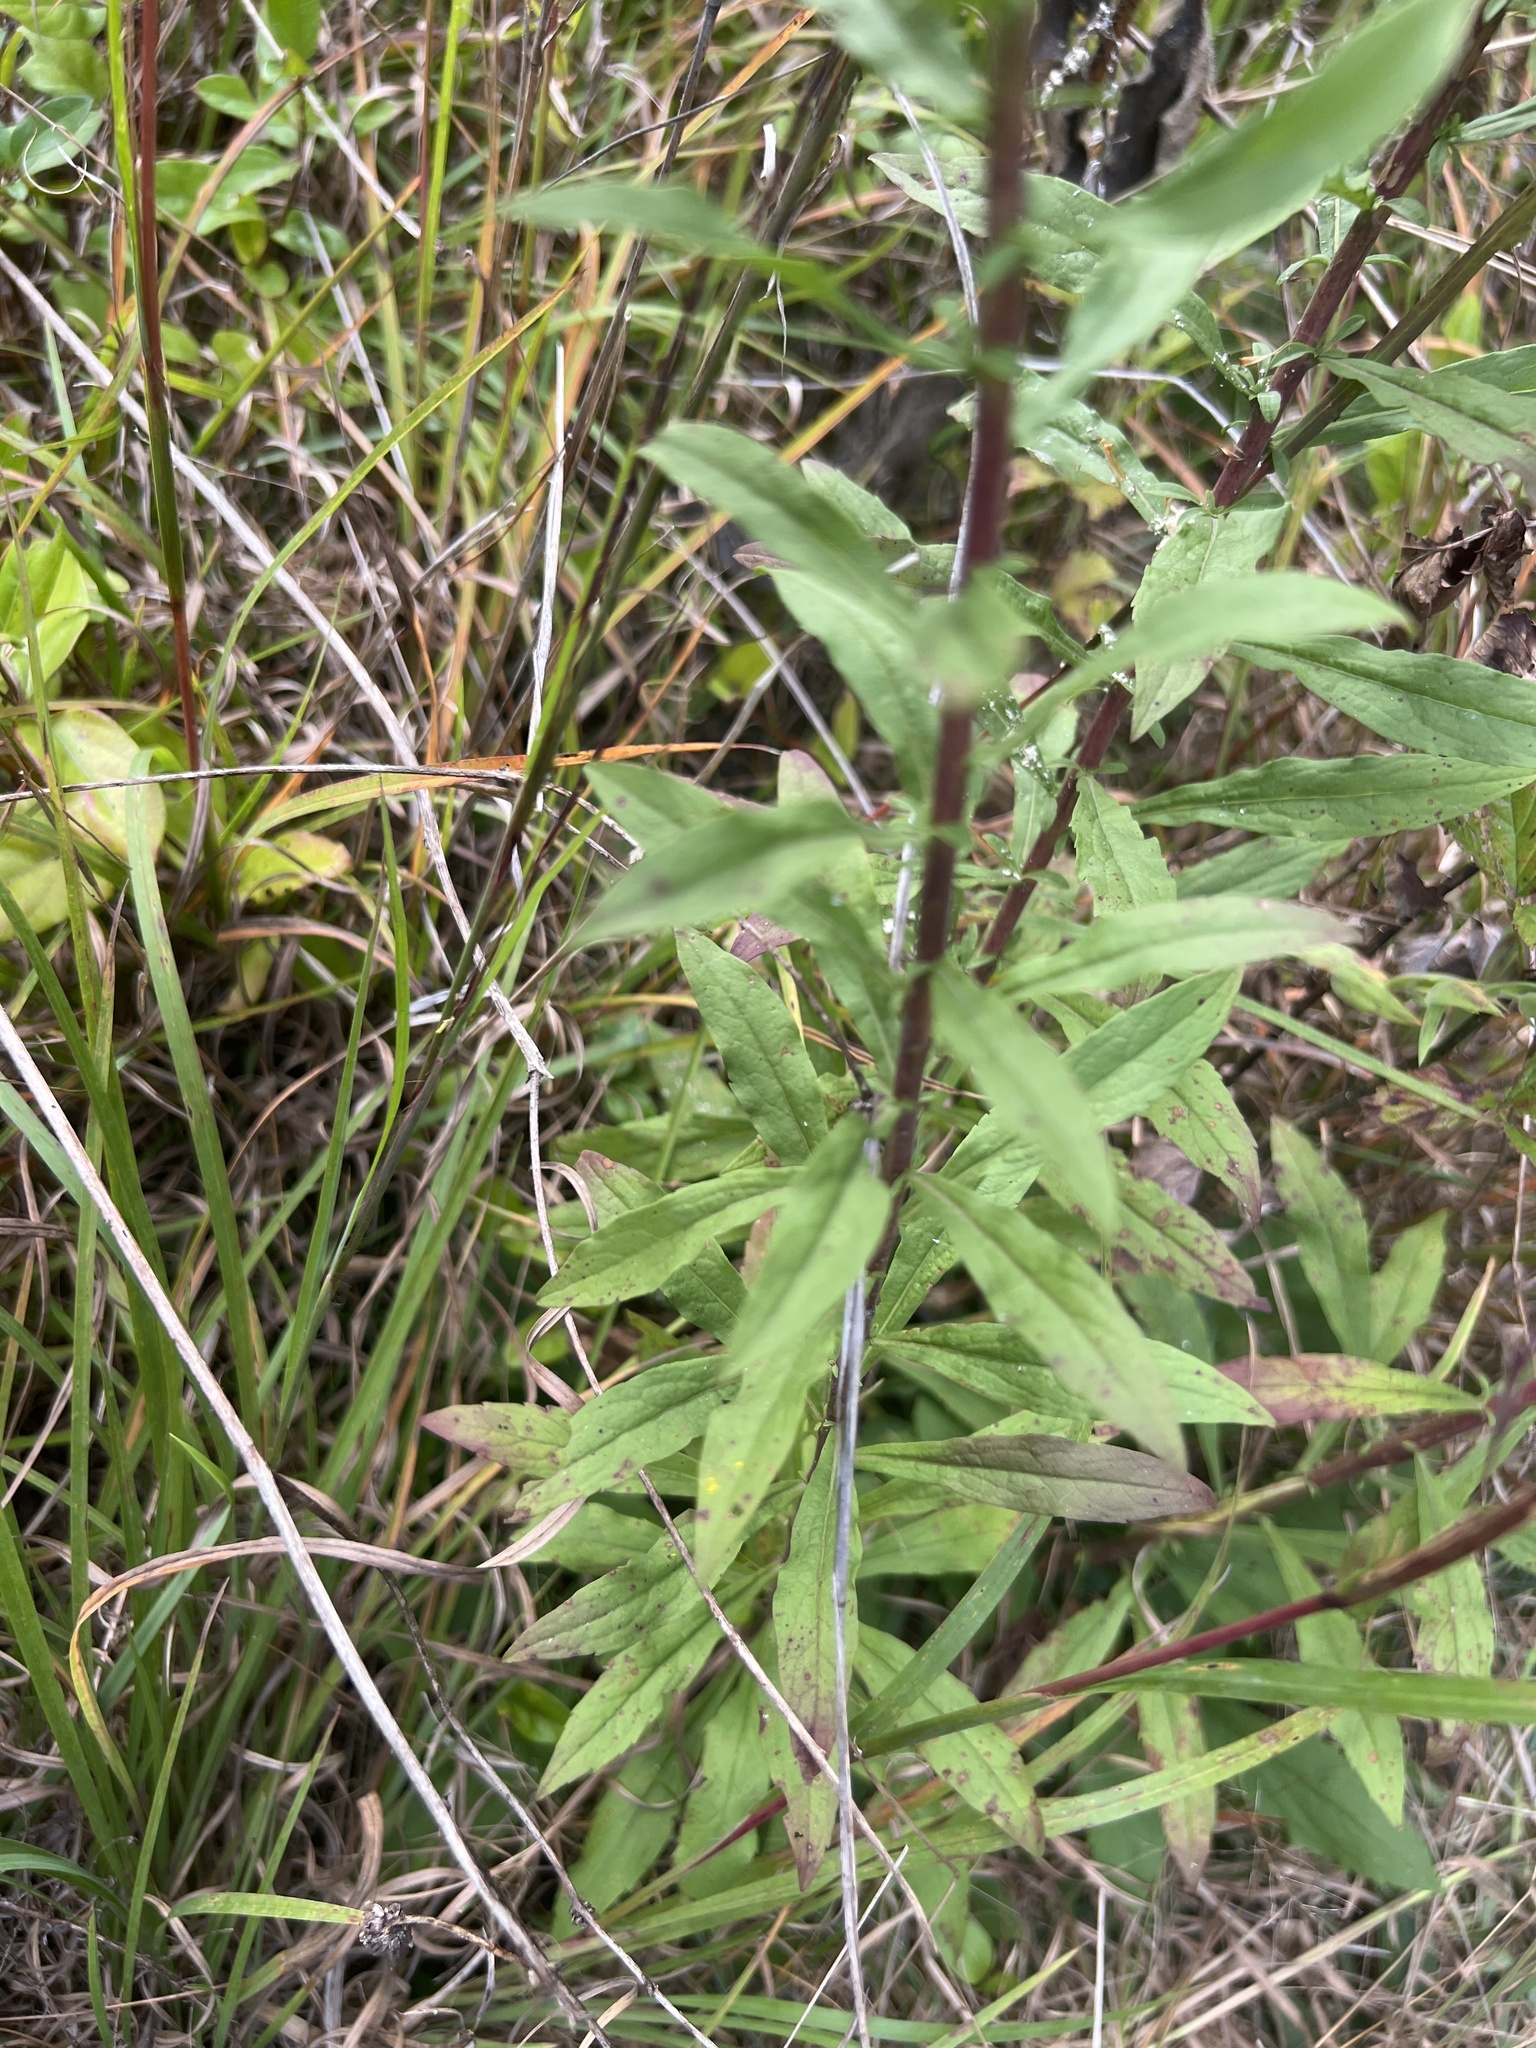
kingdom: Plantae
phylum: Tracheophyta
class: Magnoliopsida
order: Asterales
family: Asteraceae
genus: Solidago
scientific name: Solidago puberula
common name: Downy goldenrod
